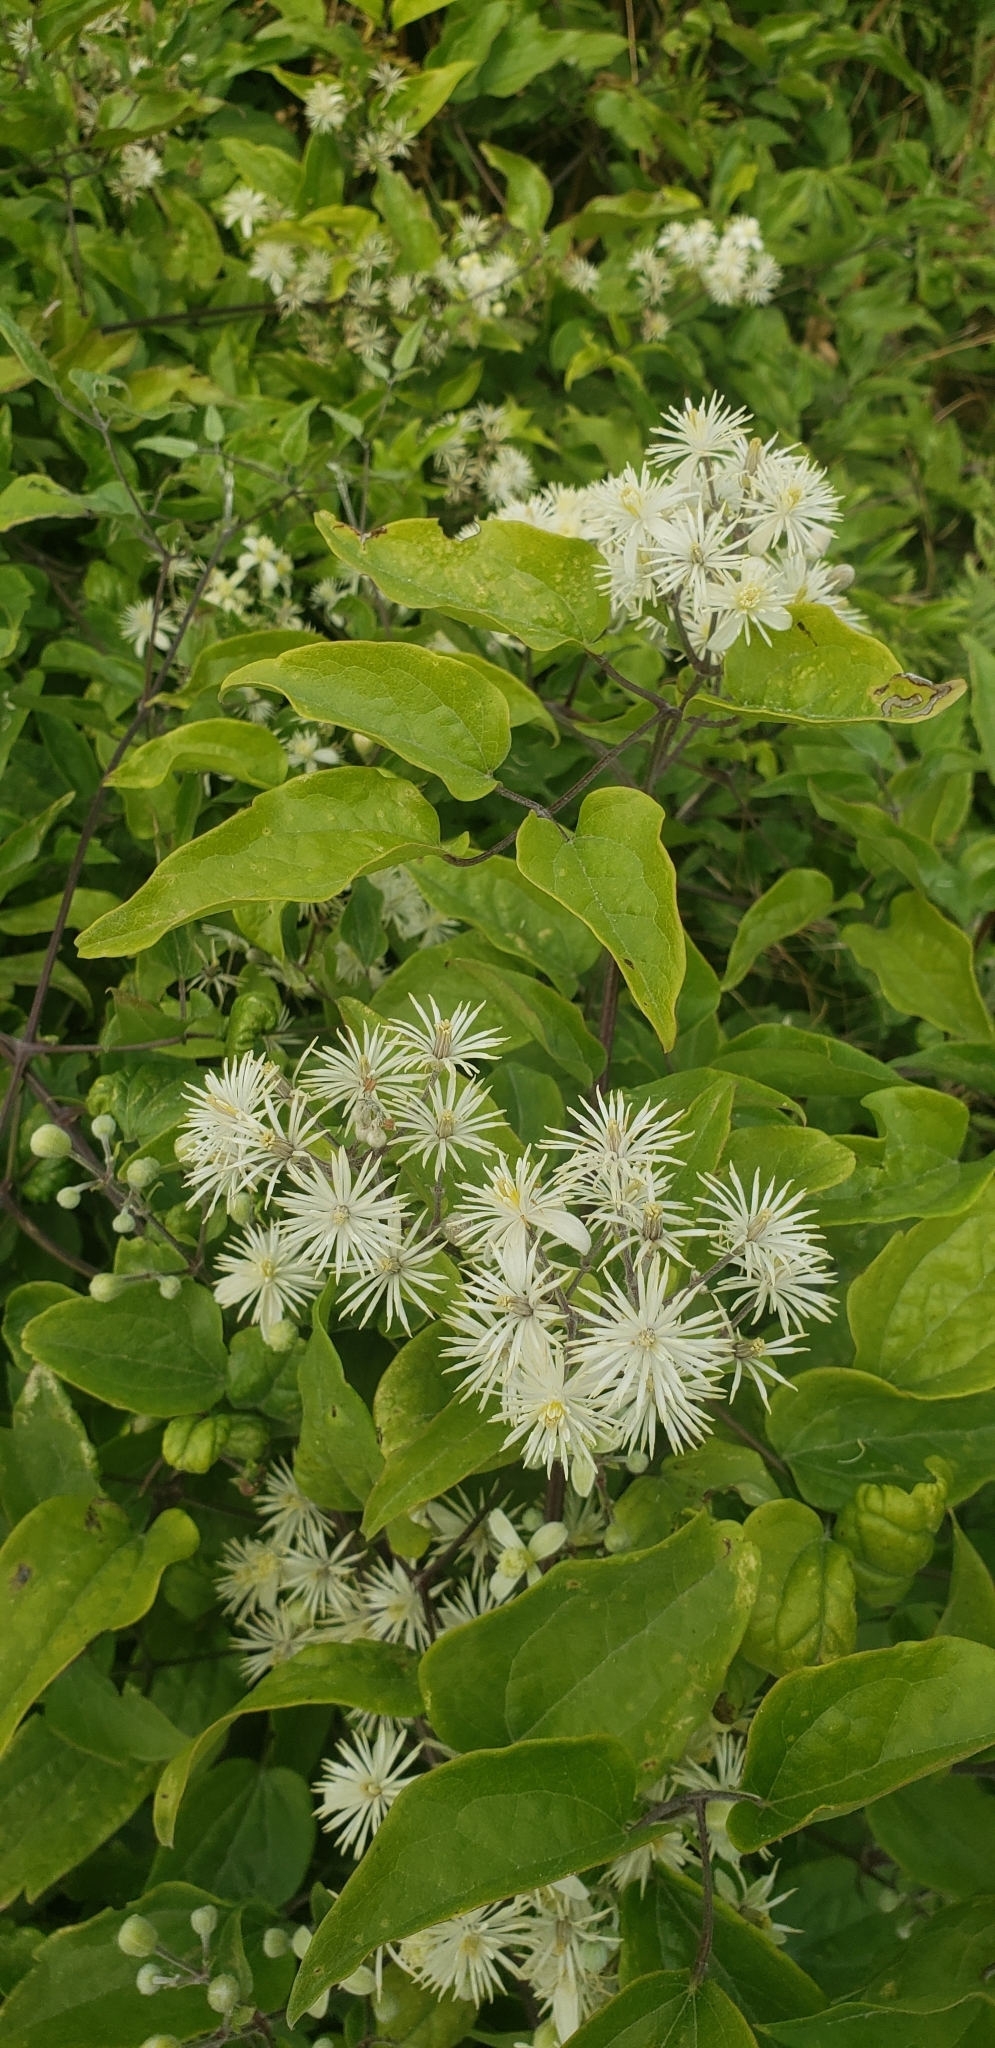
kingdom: Plantae
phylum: Tracheophyta
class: Magnoliopsida
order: Ranunculales
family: Ranunculaceae
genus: Clematis
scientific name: Clematis vitalba
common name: Evergreen clematis
